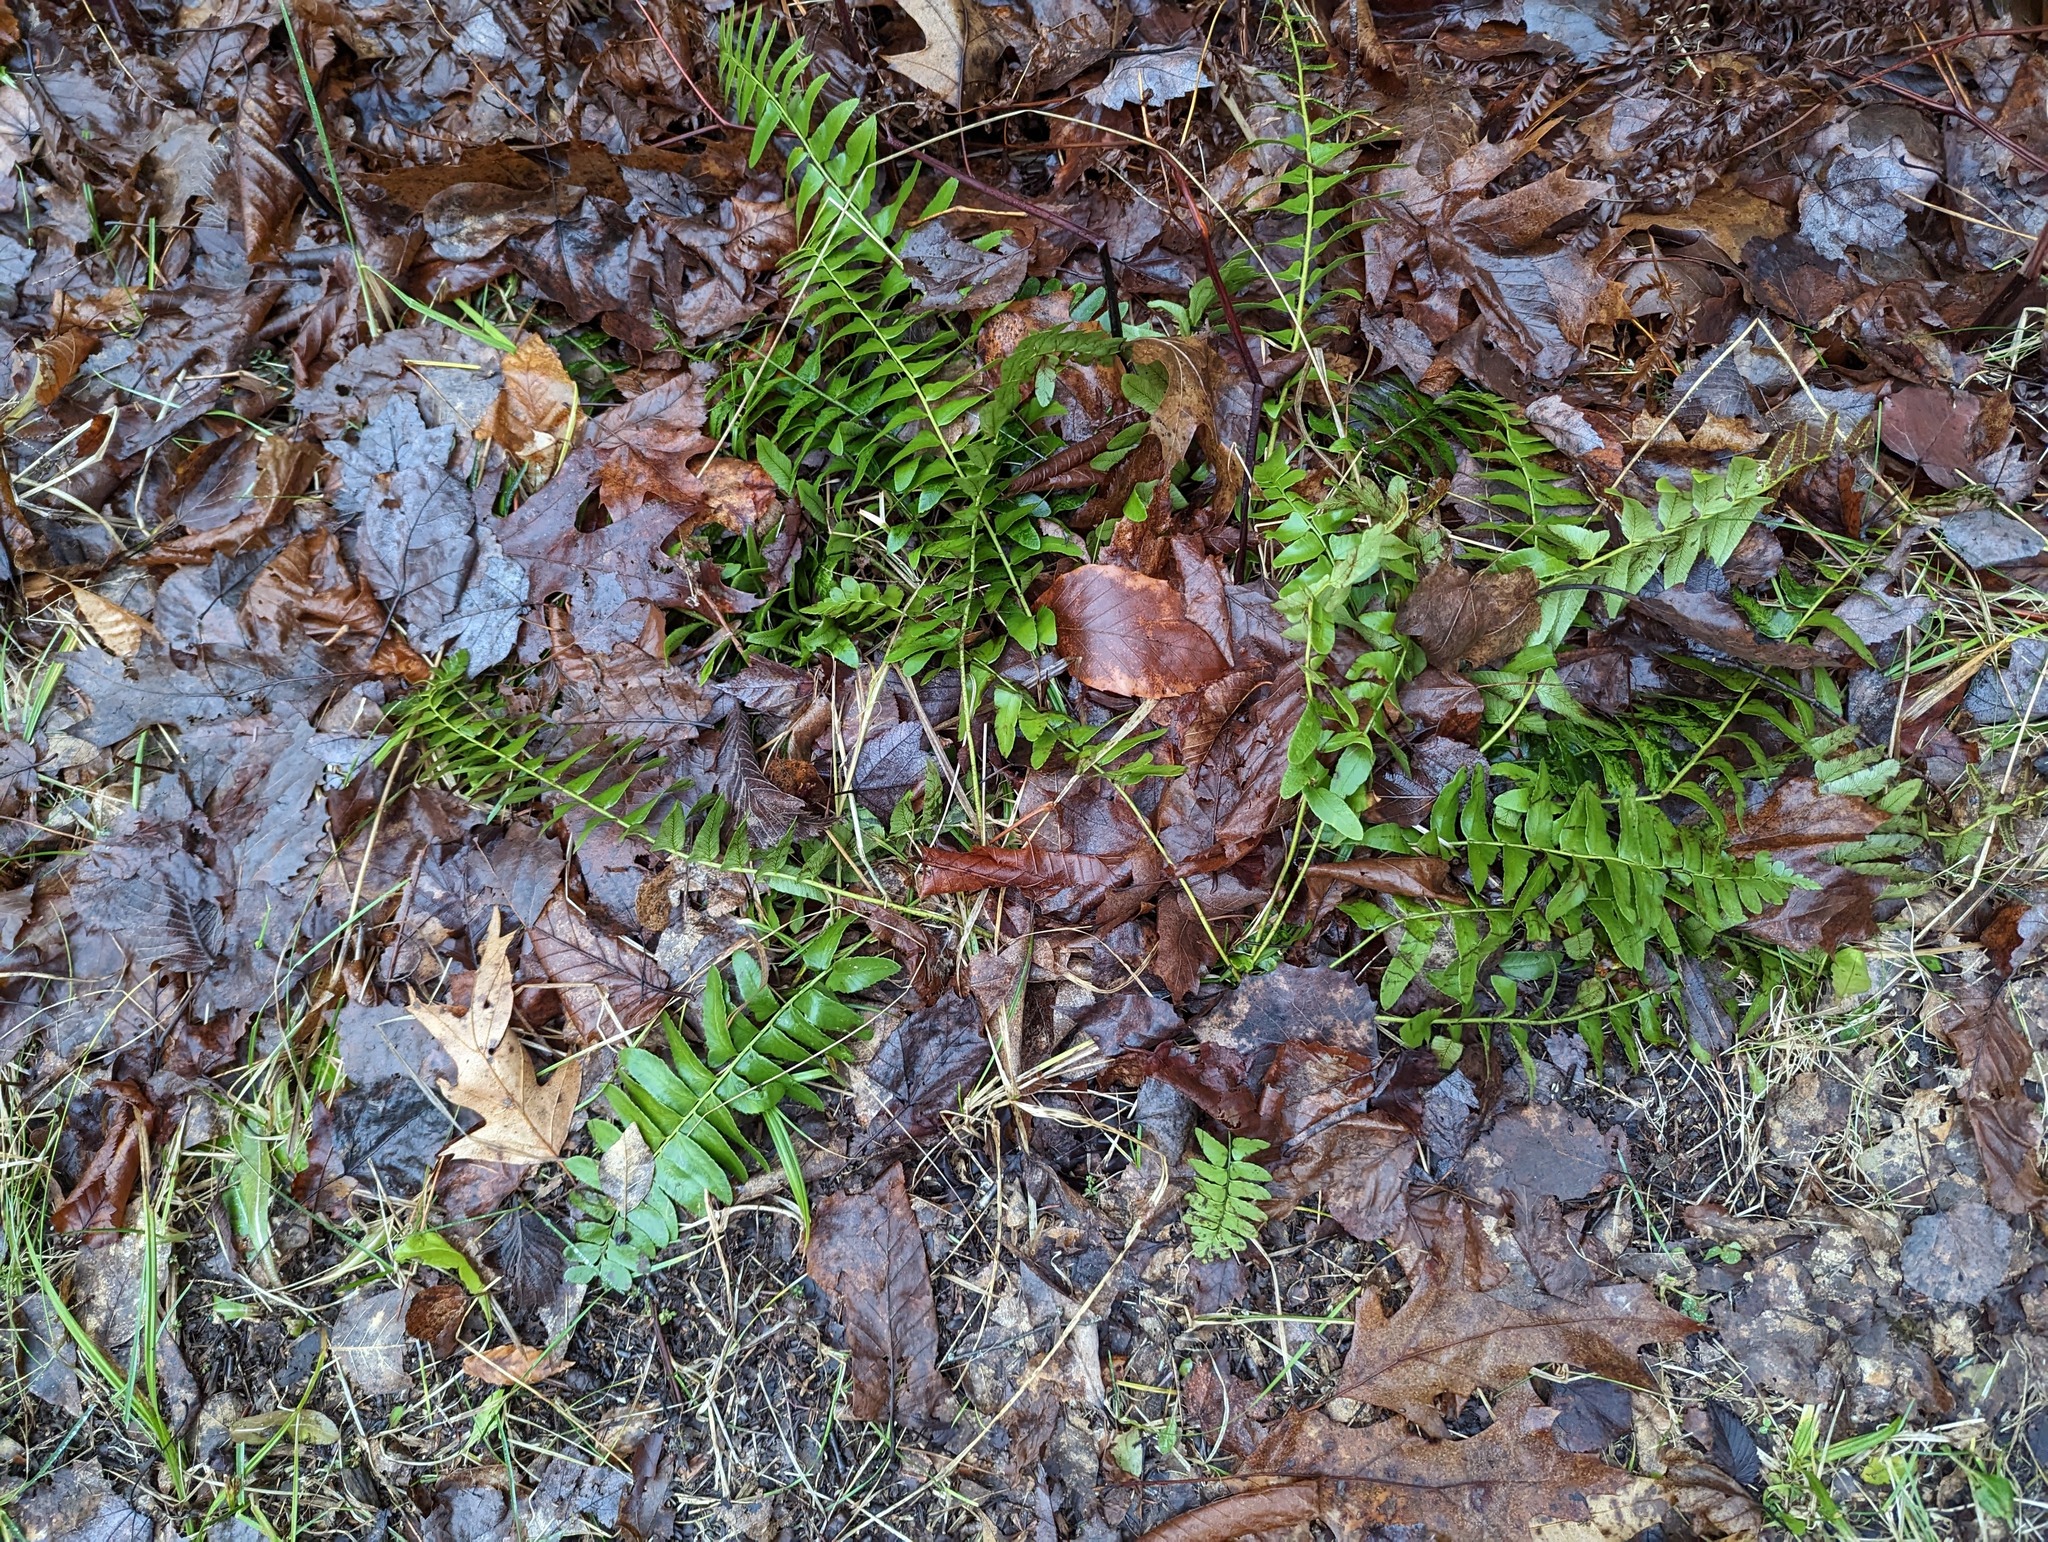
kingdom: Plantae
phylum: Tracheophyta
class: Polypodiopsida
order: Polypodiales
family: Dryopteridaceae
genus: Polystichum
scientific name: Polystichum acrostichoides
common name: Christmas fern
